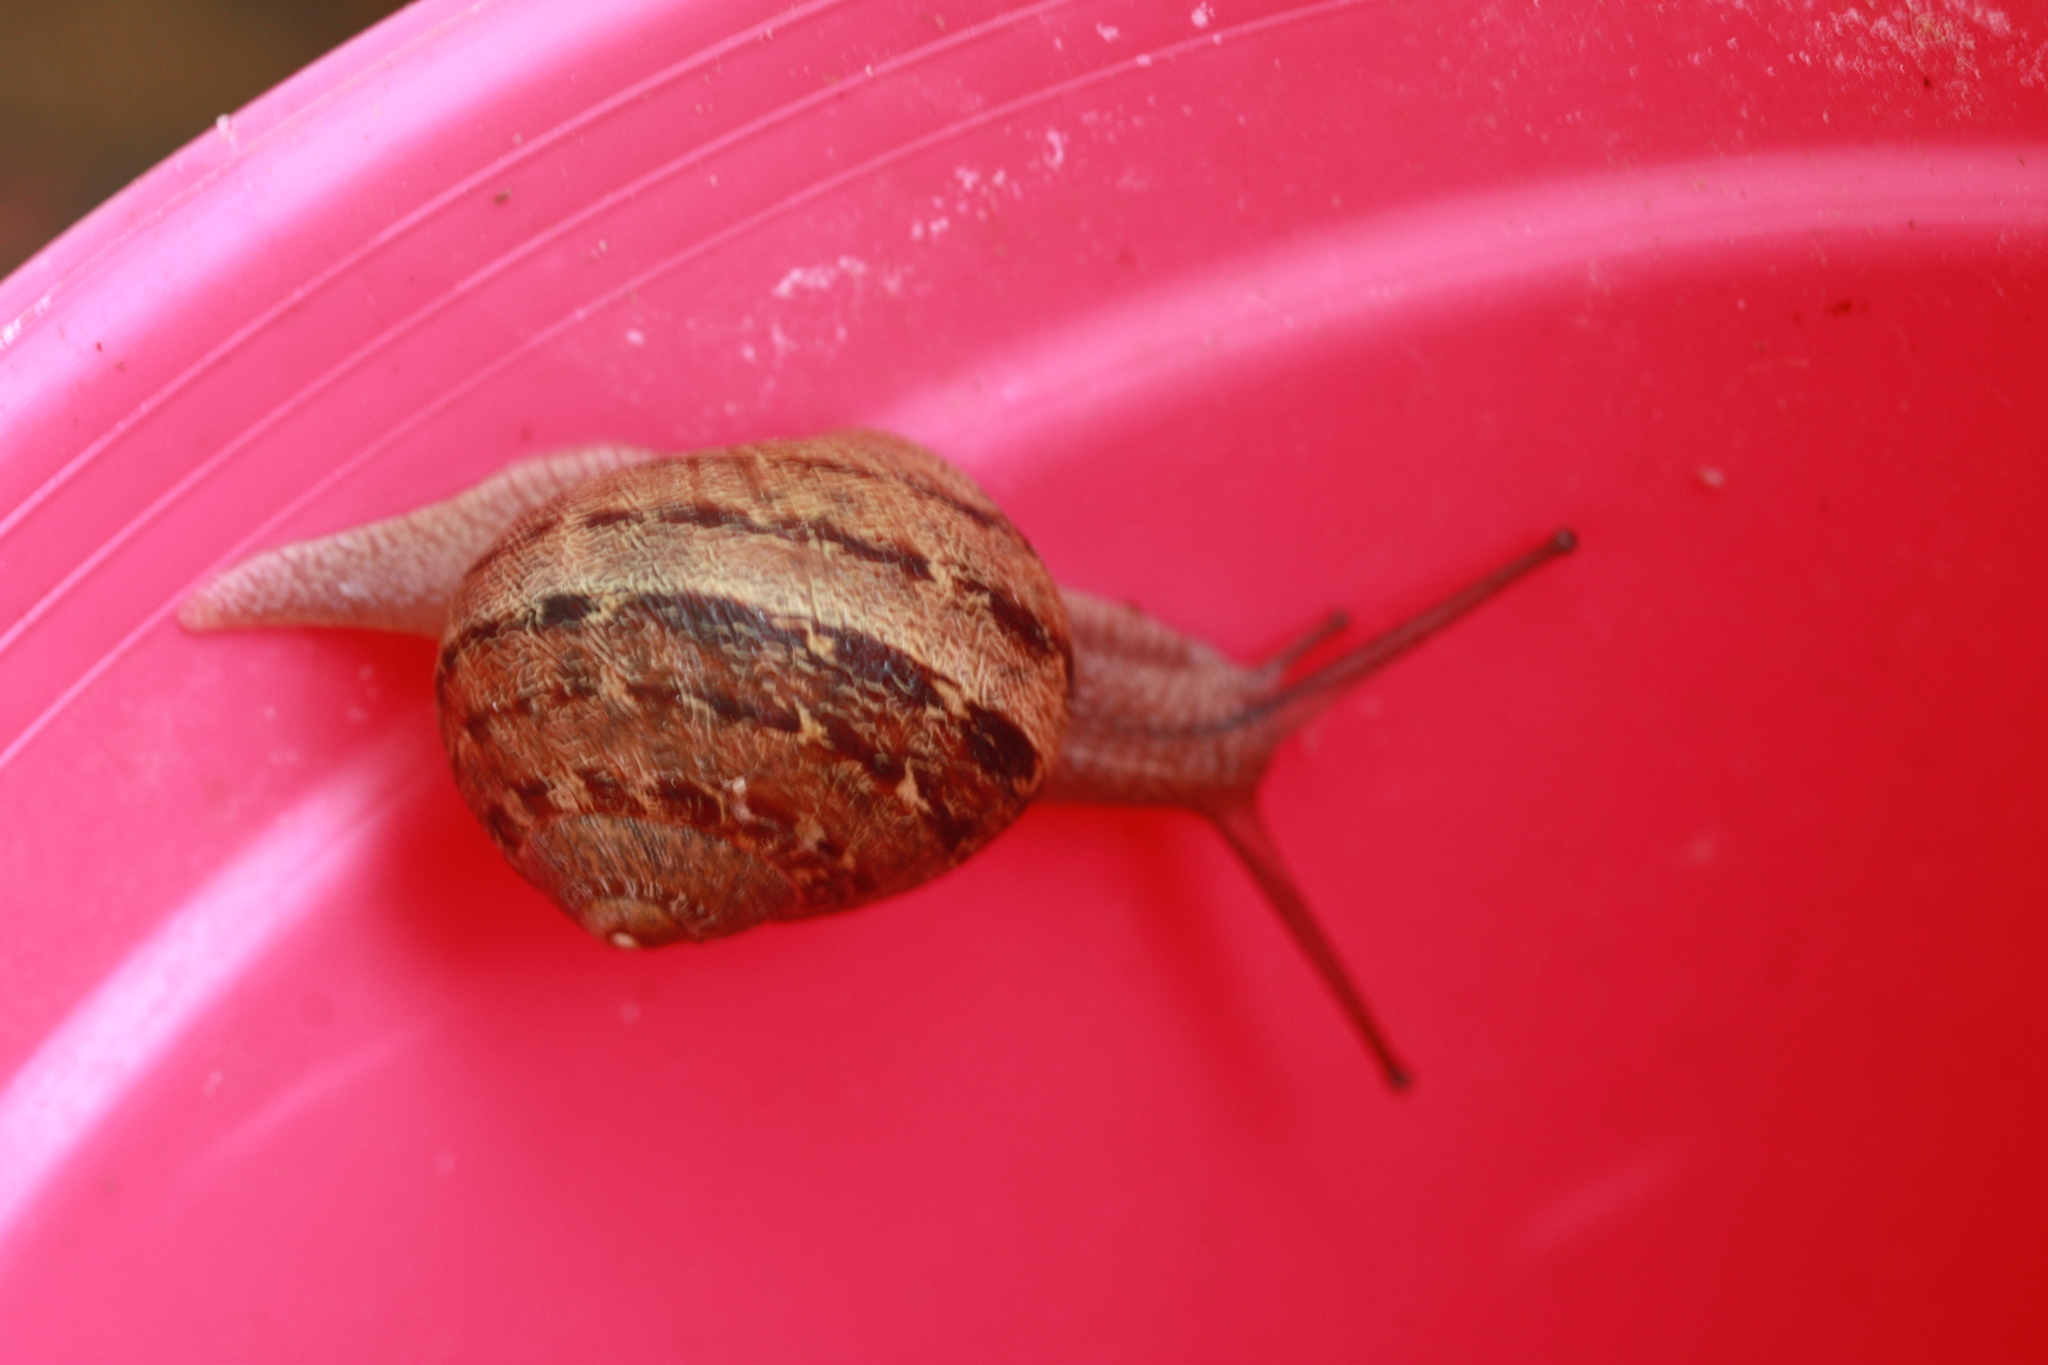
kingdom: Animalia
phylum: Mollusca
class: Gastropoda
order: Stylommatophora
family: Helicidae
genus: Cornu
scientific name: Cornu aspersum
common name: Brown garden snail
